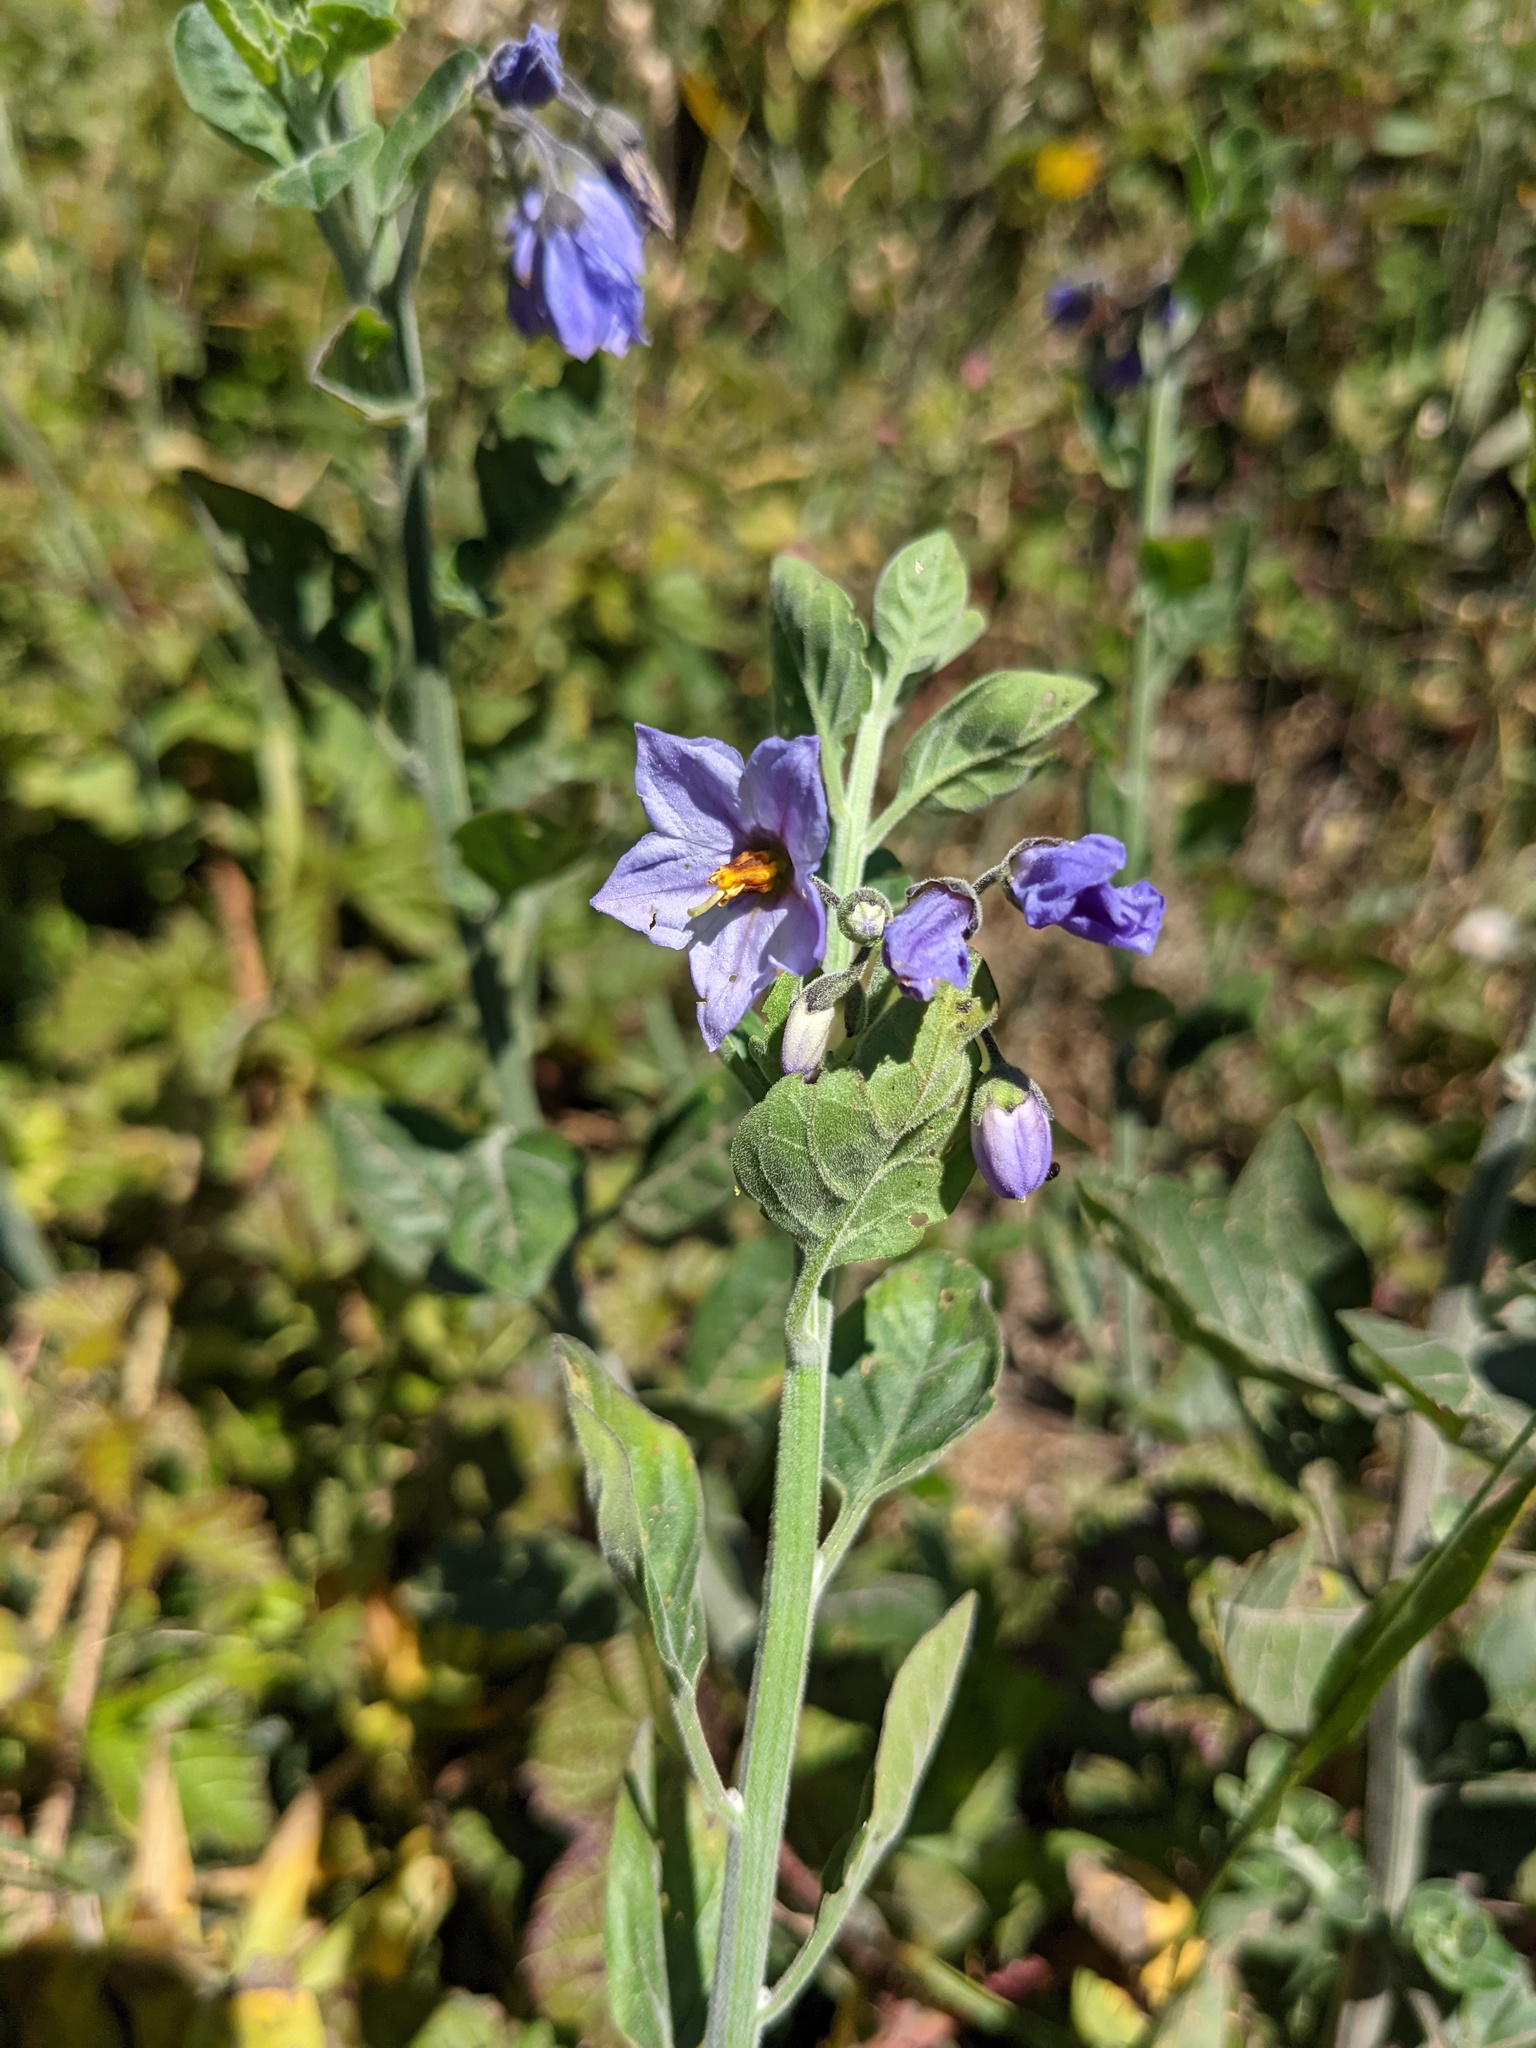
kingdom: Plantae
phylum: Tracheophyta
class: Magnoliopsida
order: Solanales
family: Solanaceae
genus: Solanum
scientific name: Solanum umbelliferum
